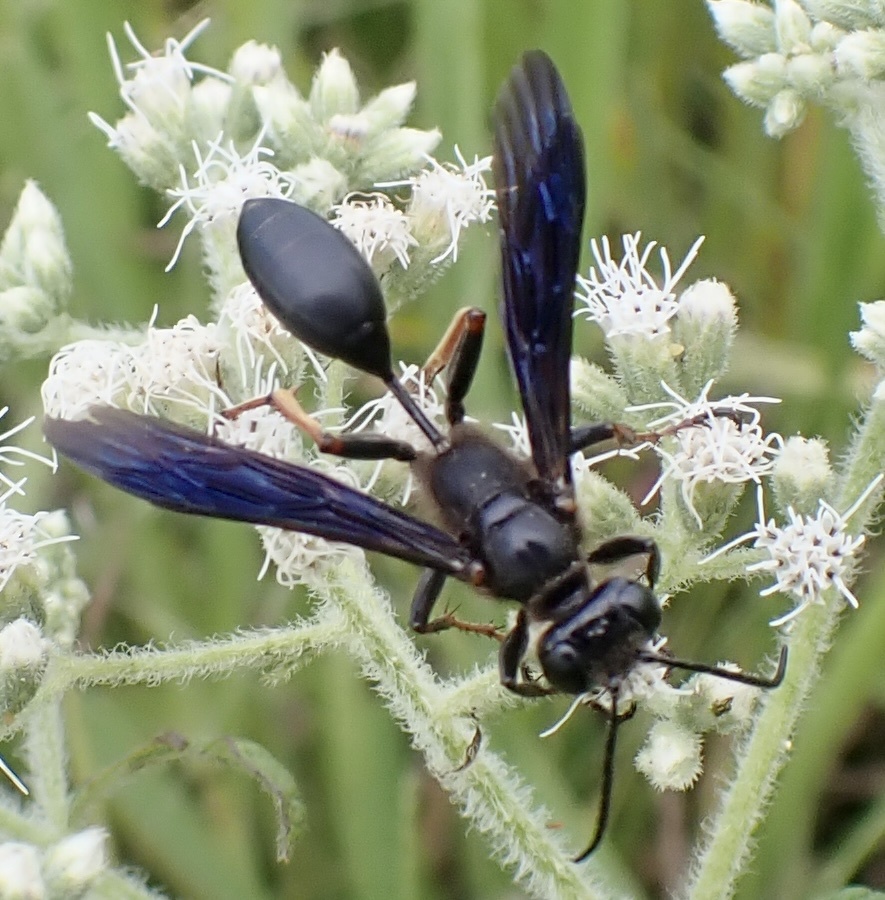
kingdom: Animalia
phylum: Arthropoda
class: Insecta
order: Hymenoptera
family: Sphecidae
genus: Isodontia
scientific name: Isodontia auripes
